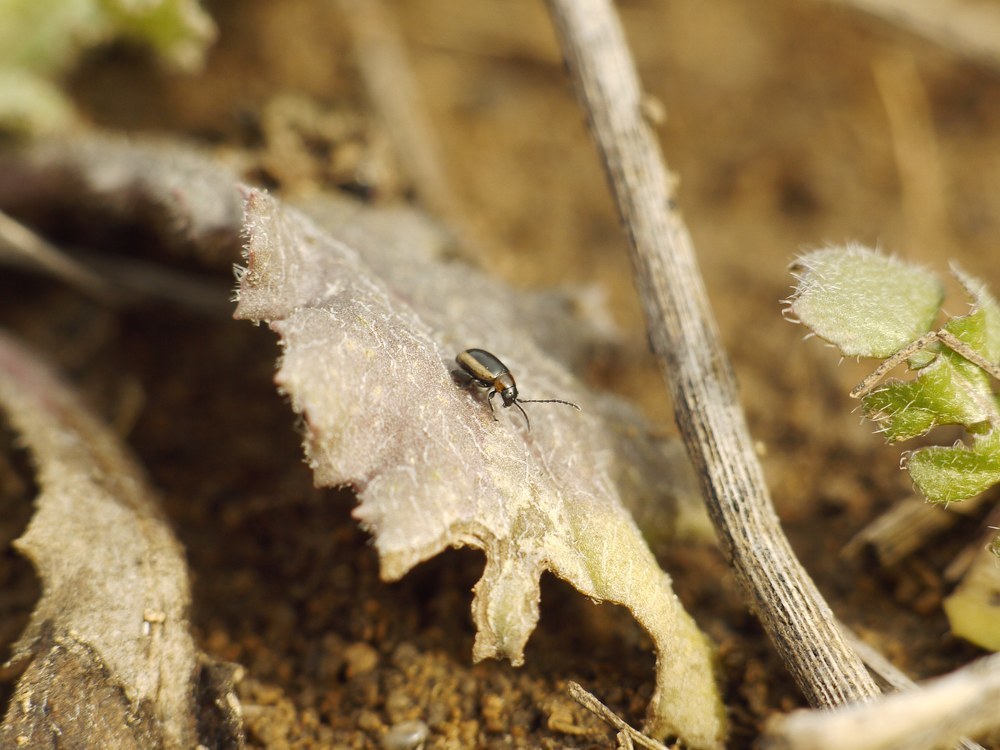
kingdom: Animalia
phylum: Arthropoda
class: Insecta
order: Coleoptera
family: Chrysomelidae
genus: Longitarsus
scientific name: Longitarsus dorsalis
